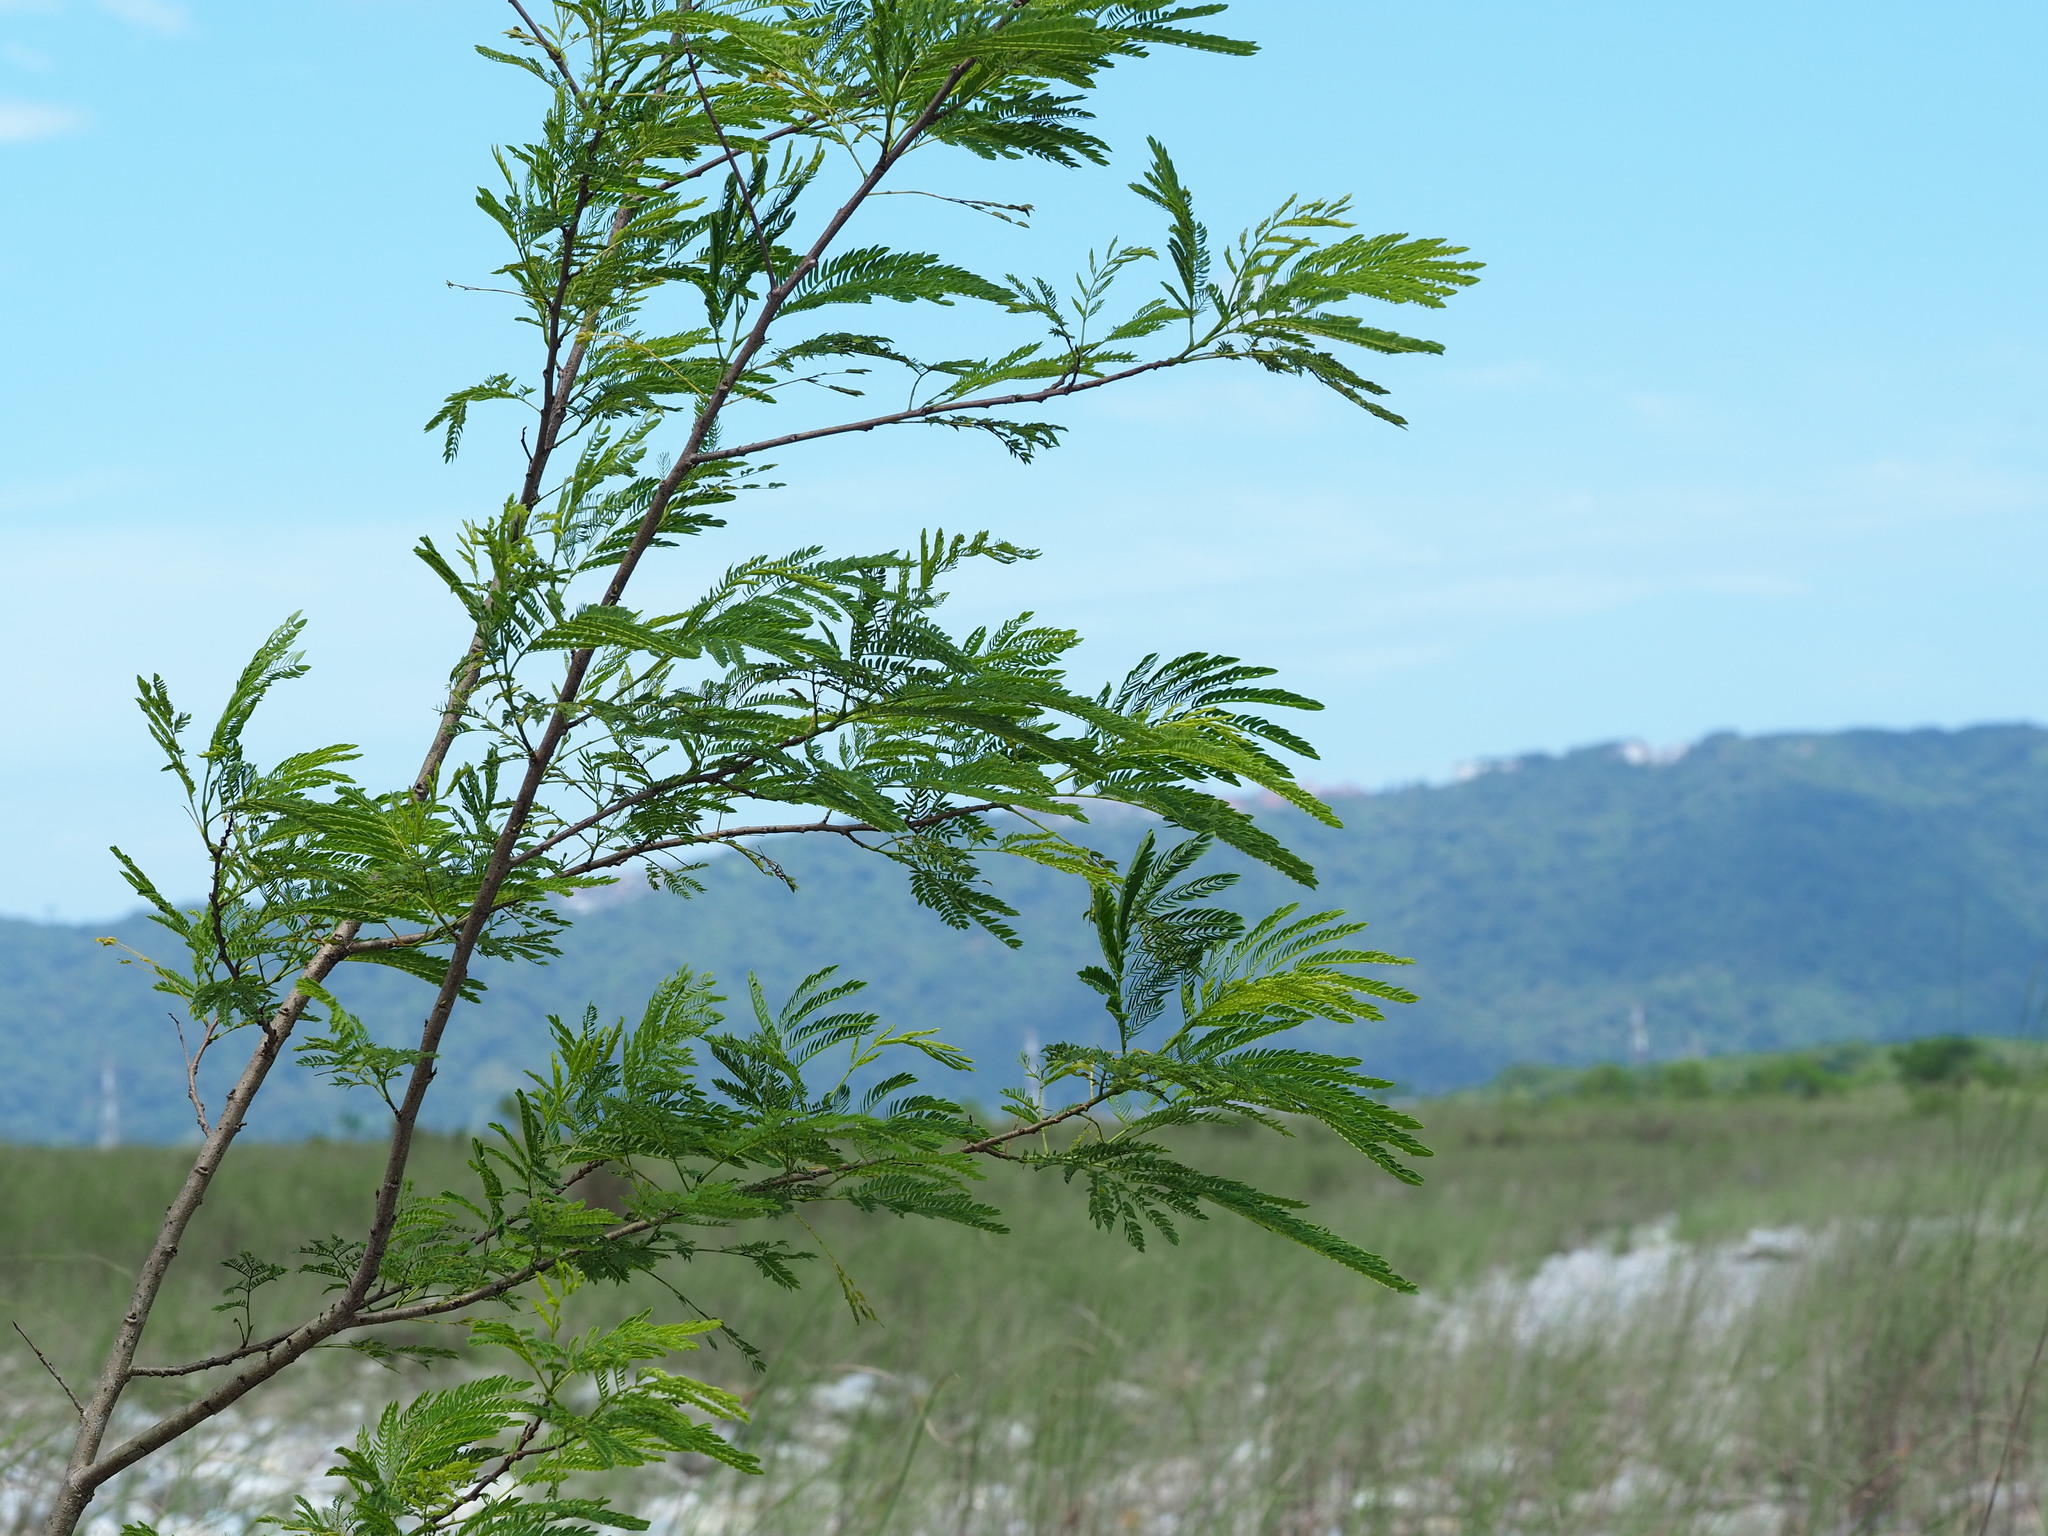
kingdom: Plantae
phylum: Tracheophyta
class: Magnoliopsida
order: Fabales
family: Fabaceae
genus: Leucaena
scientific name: Leucaena leucocephala
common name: White leadtree
